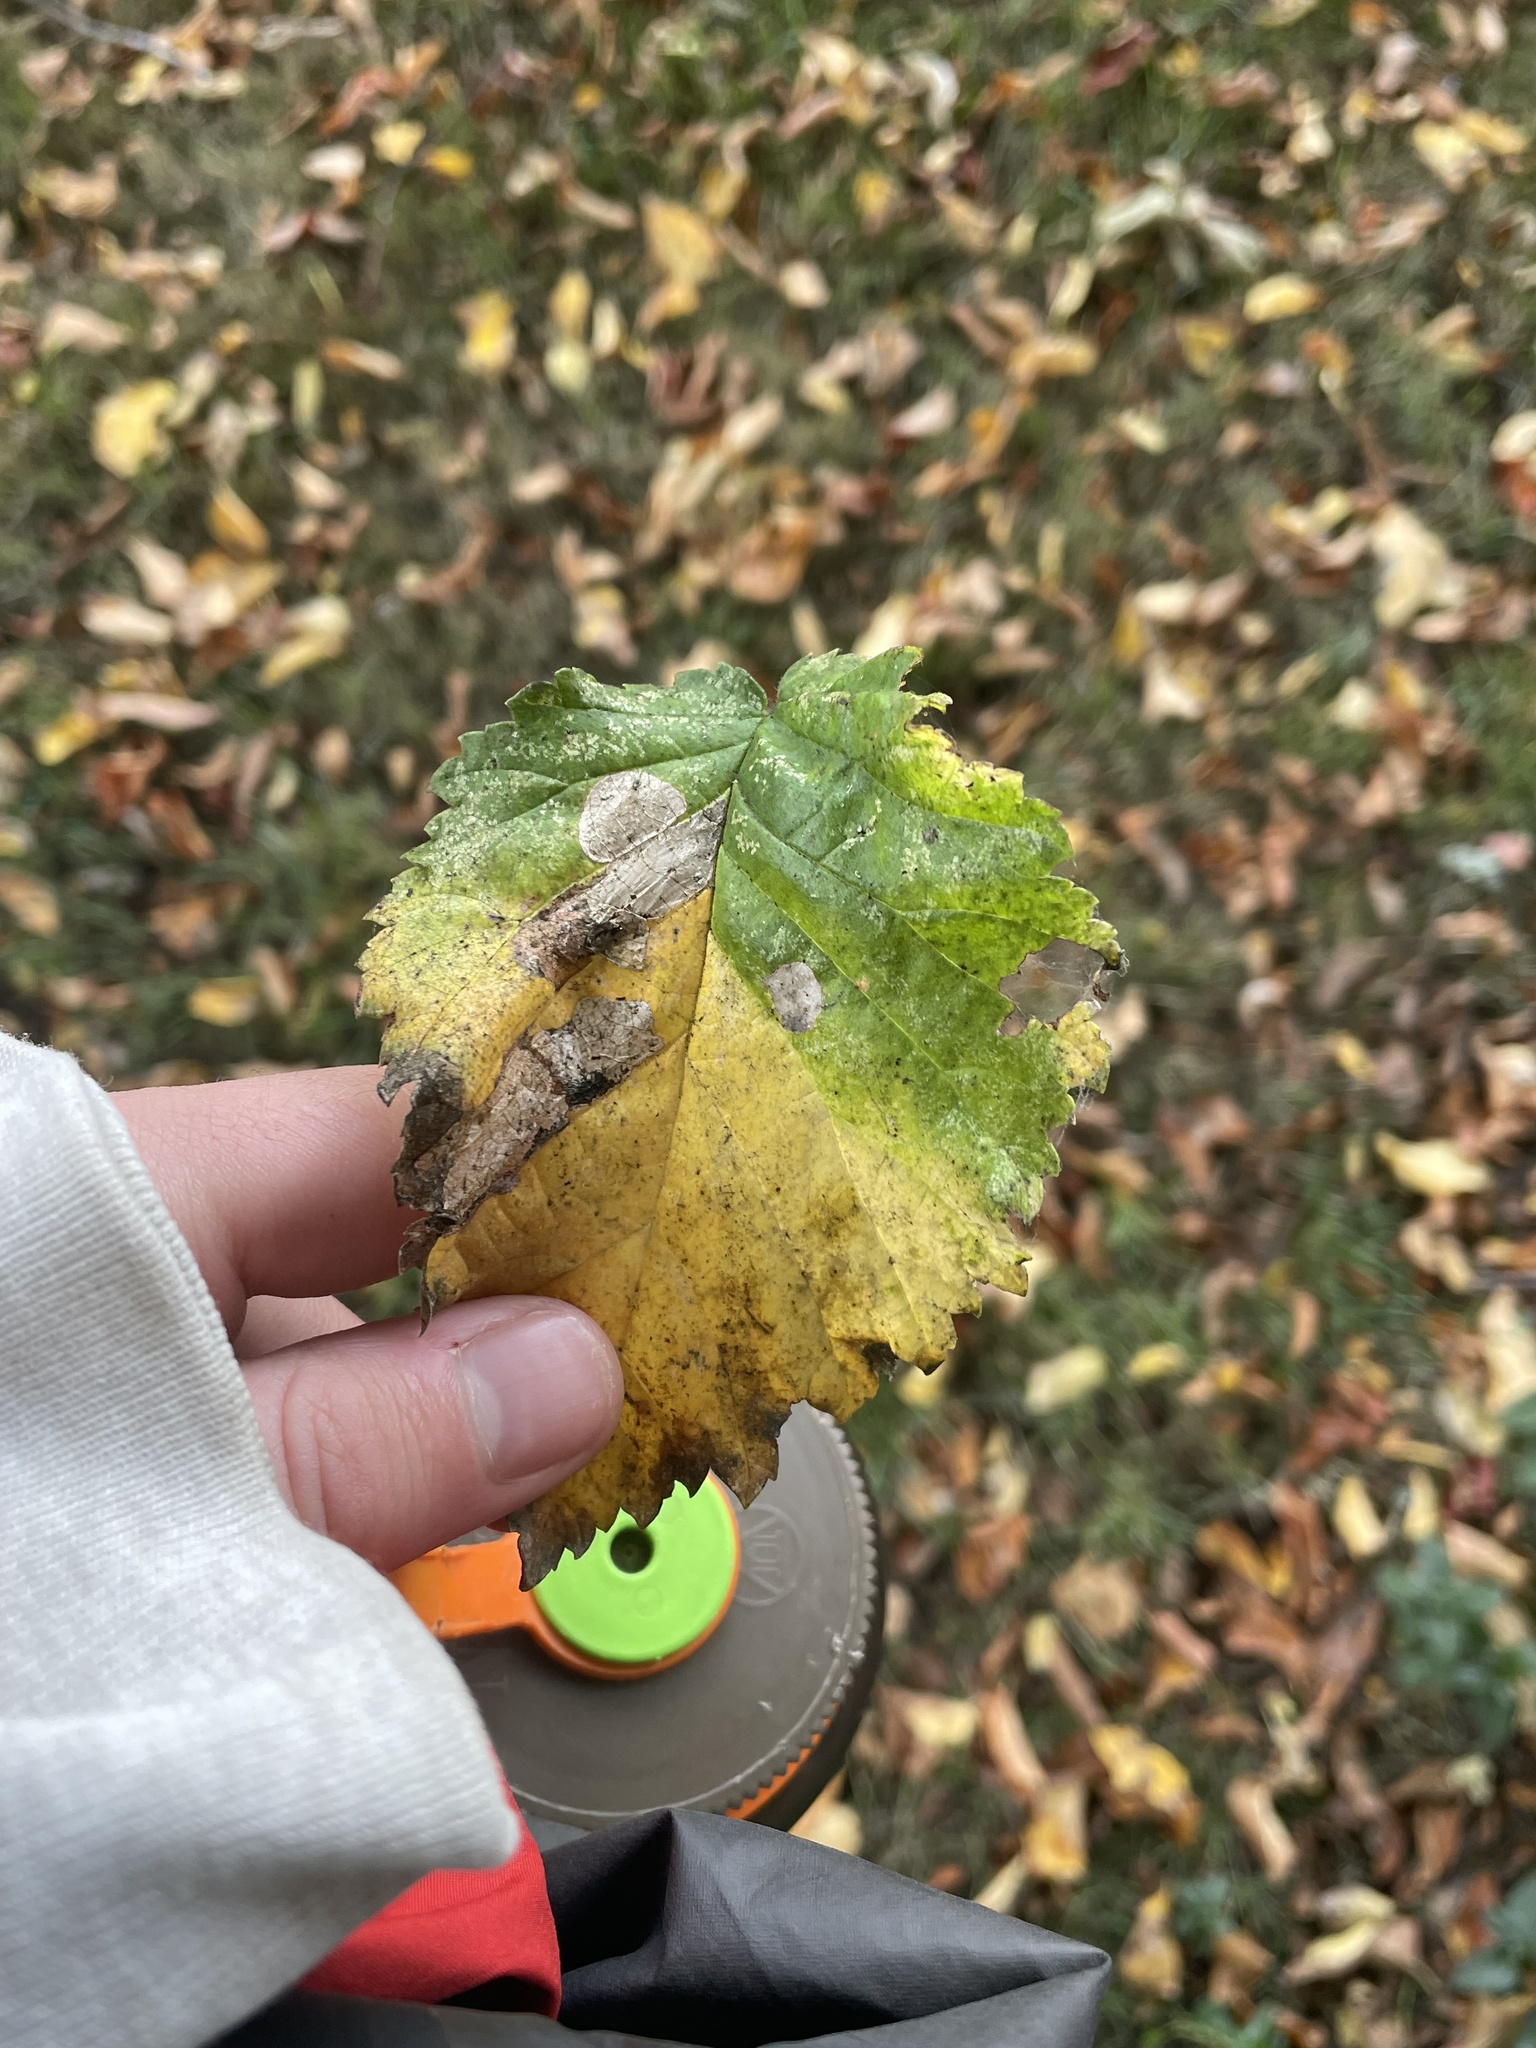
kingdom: Animalia
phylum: Arthropoda
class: Insecta
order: Hymenoptera
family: Tenthredinidae
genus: Fenusa
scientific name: Fenusa ulmi
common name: Elm leafminer
